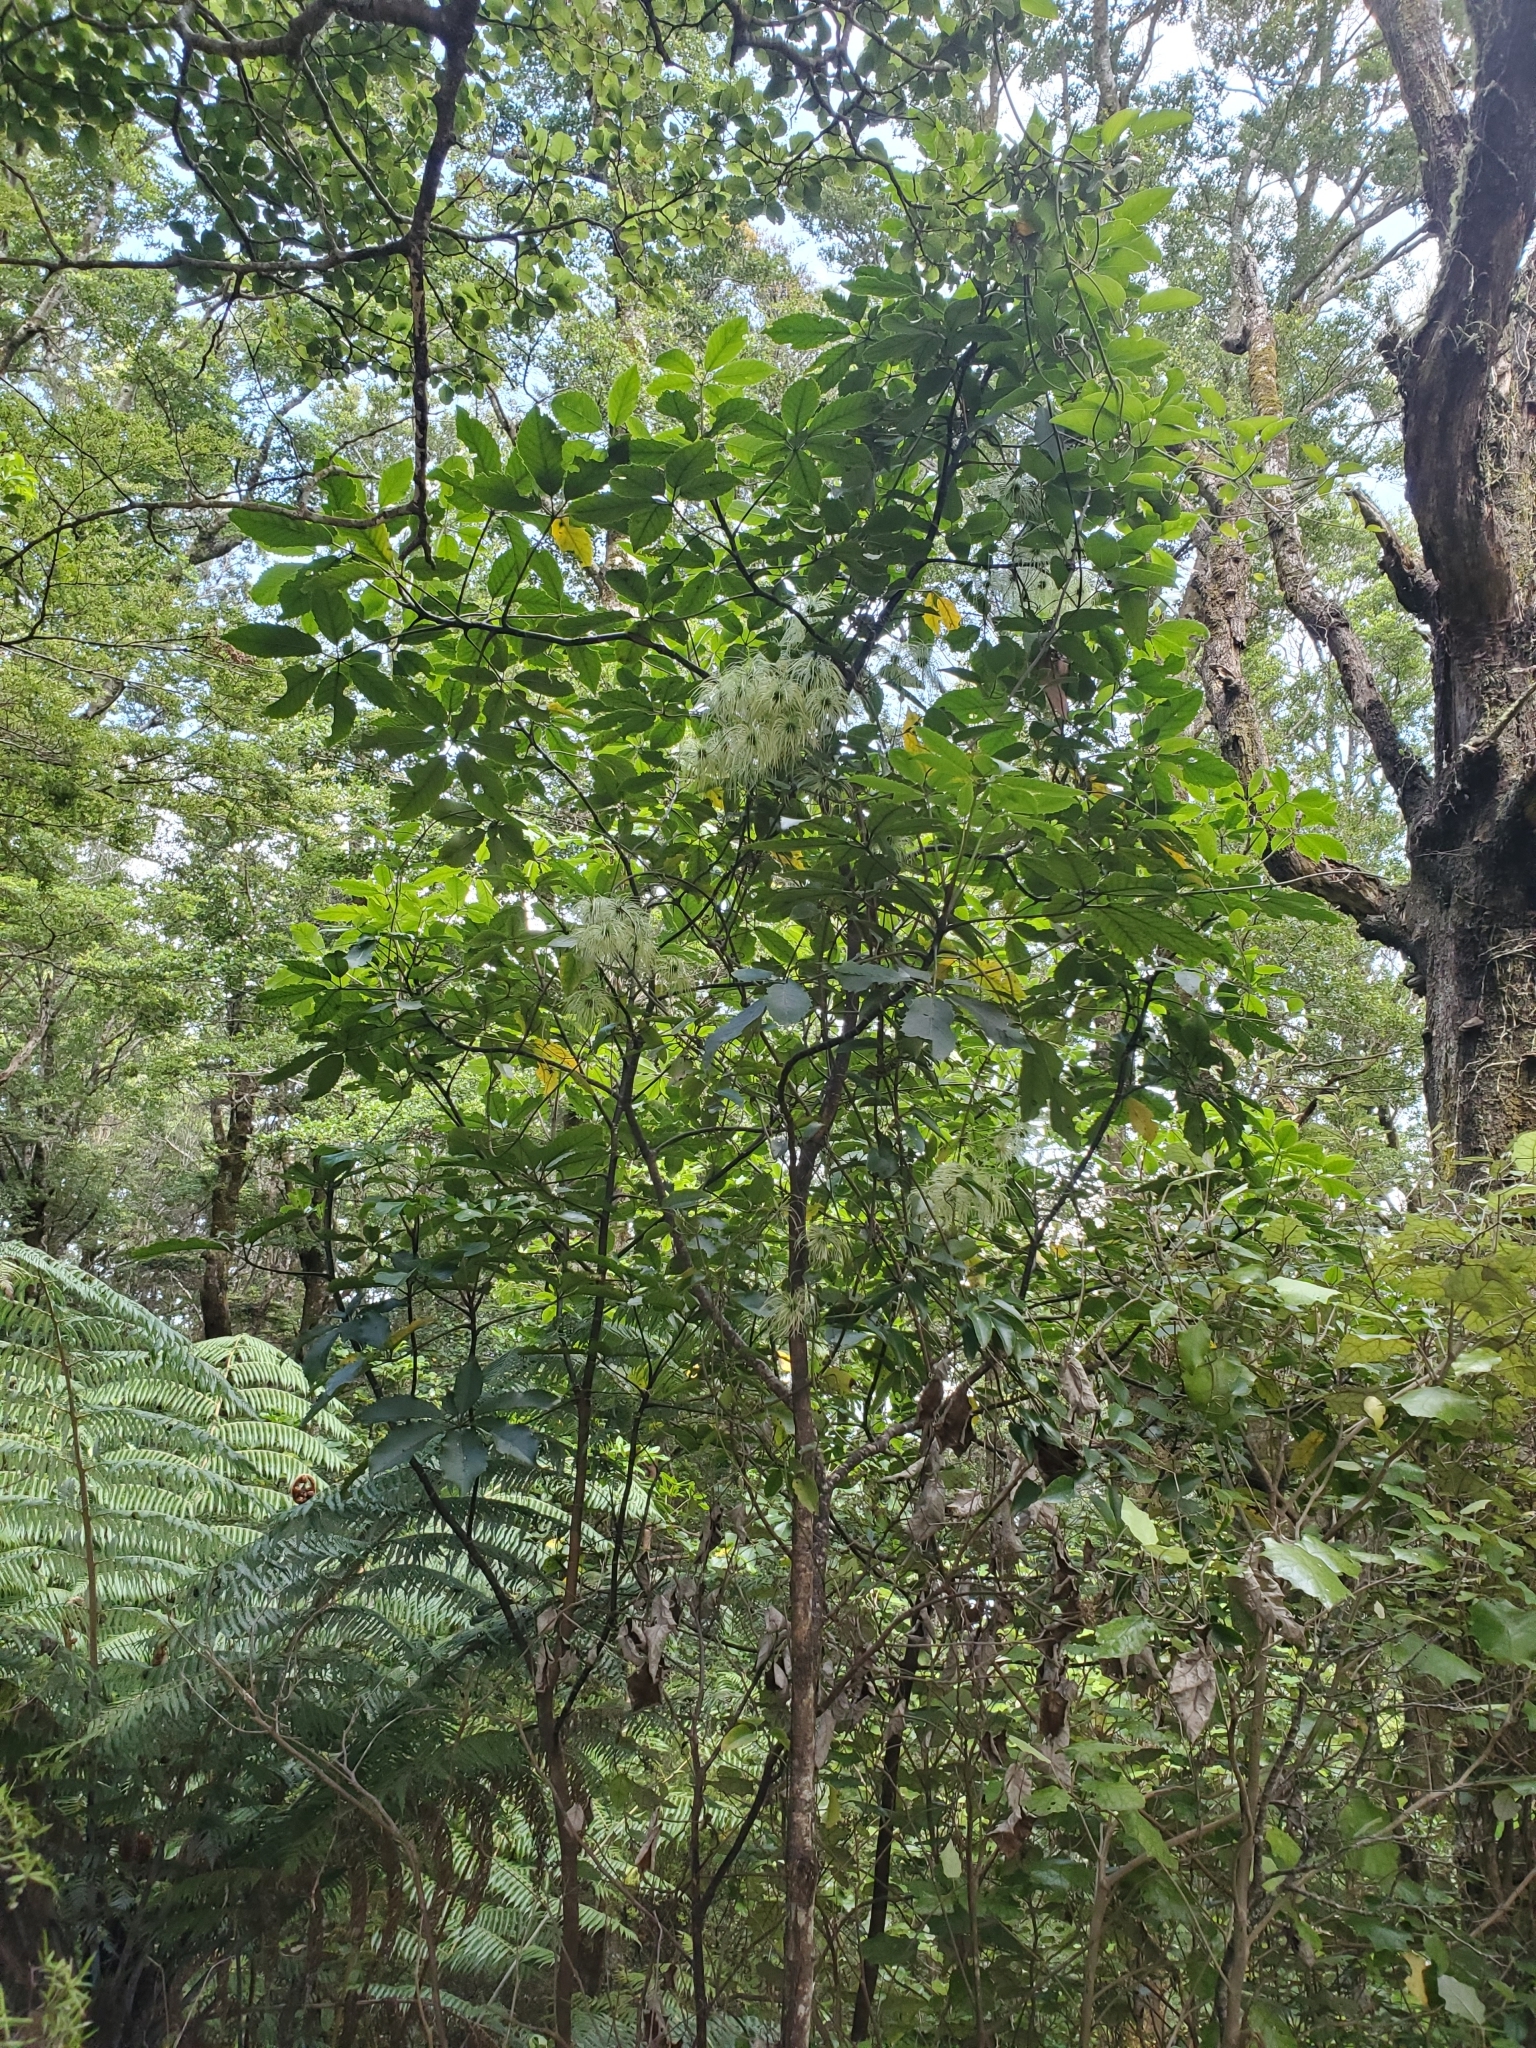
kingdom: Plantae
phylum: Tracheophyta
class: Magnoliopsida
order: Ranunculales
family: Ranunculaceae
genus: Clematis
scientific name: Clematis paniculata
